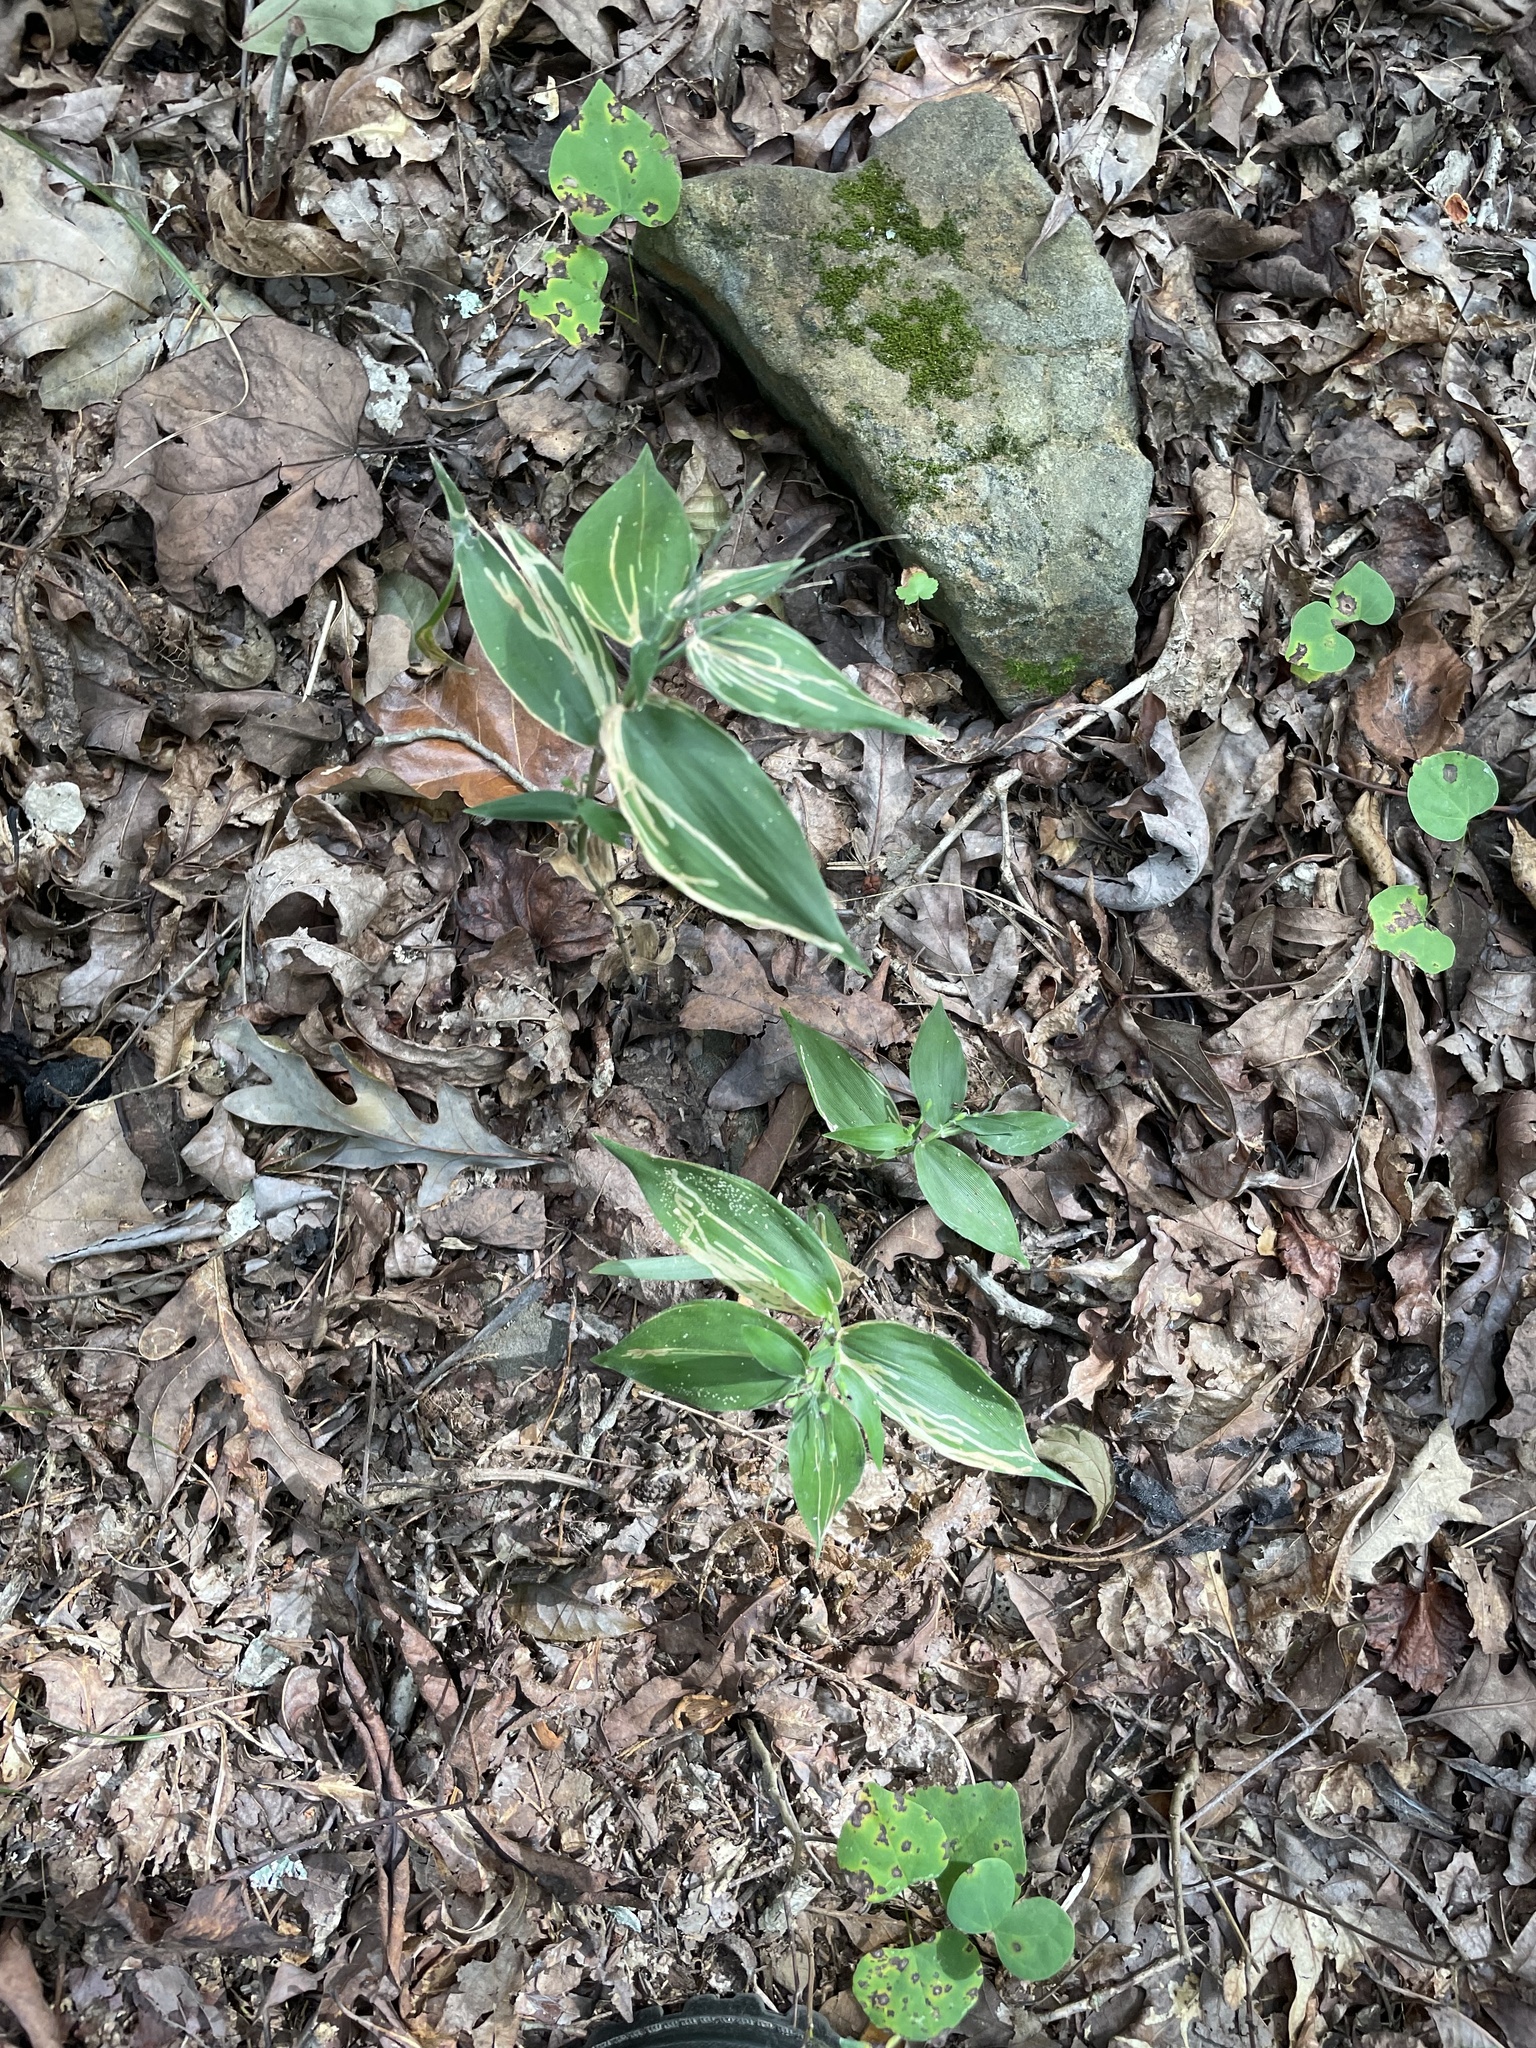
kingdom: Plantae
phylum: Tracheophyta
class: Liliopsida
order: Poales
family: Poaceae
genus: Dichanthelium
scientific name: Dichanthelium boscii
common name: Bosc's panic grass
